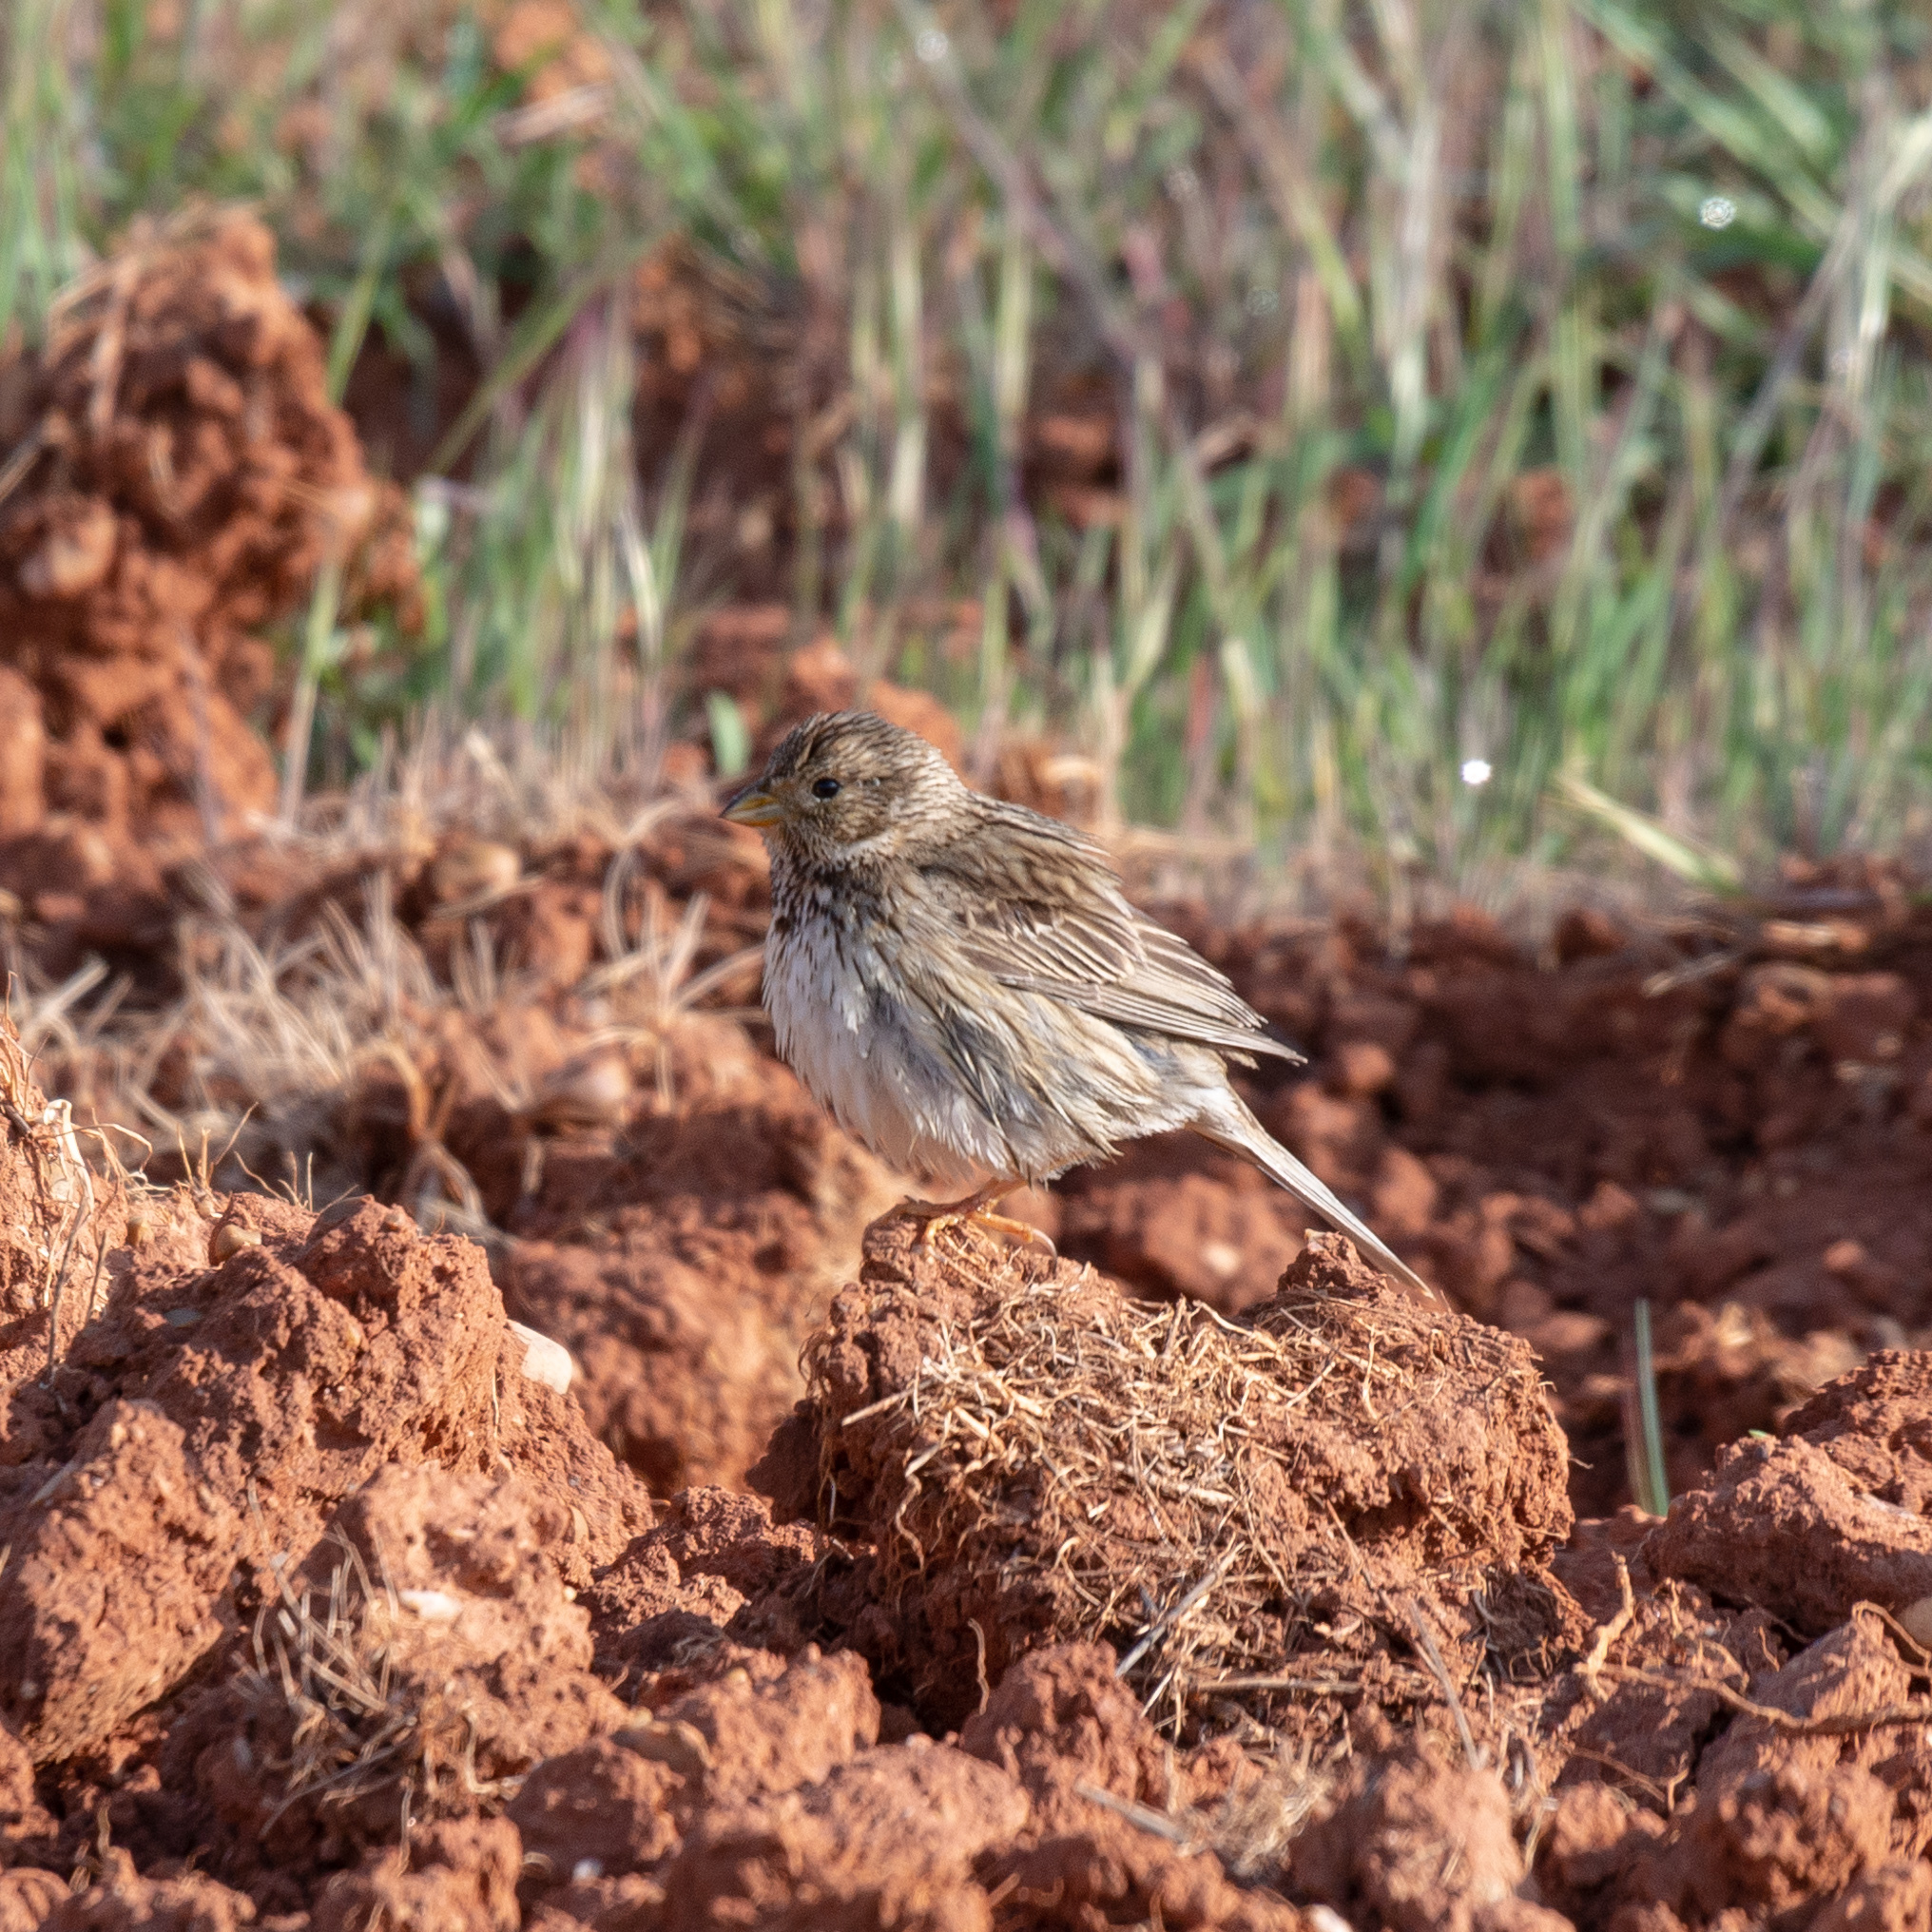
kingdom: Animalia
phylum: Chordata
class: Aves
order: Passeriformes
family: Emberizidae
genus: Emberiza
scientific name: Emberiza calandra
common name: Corn bunting
